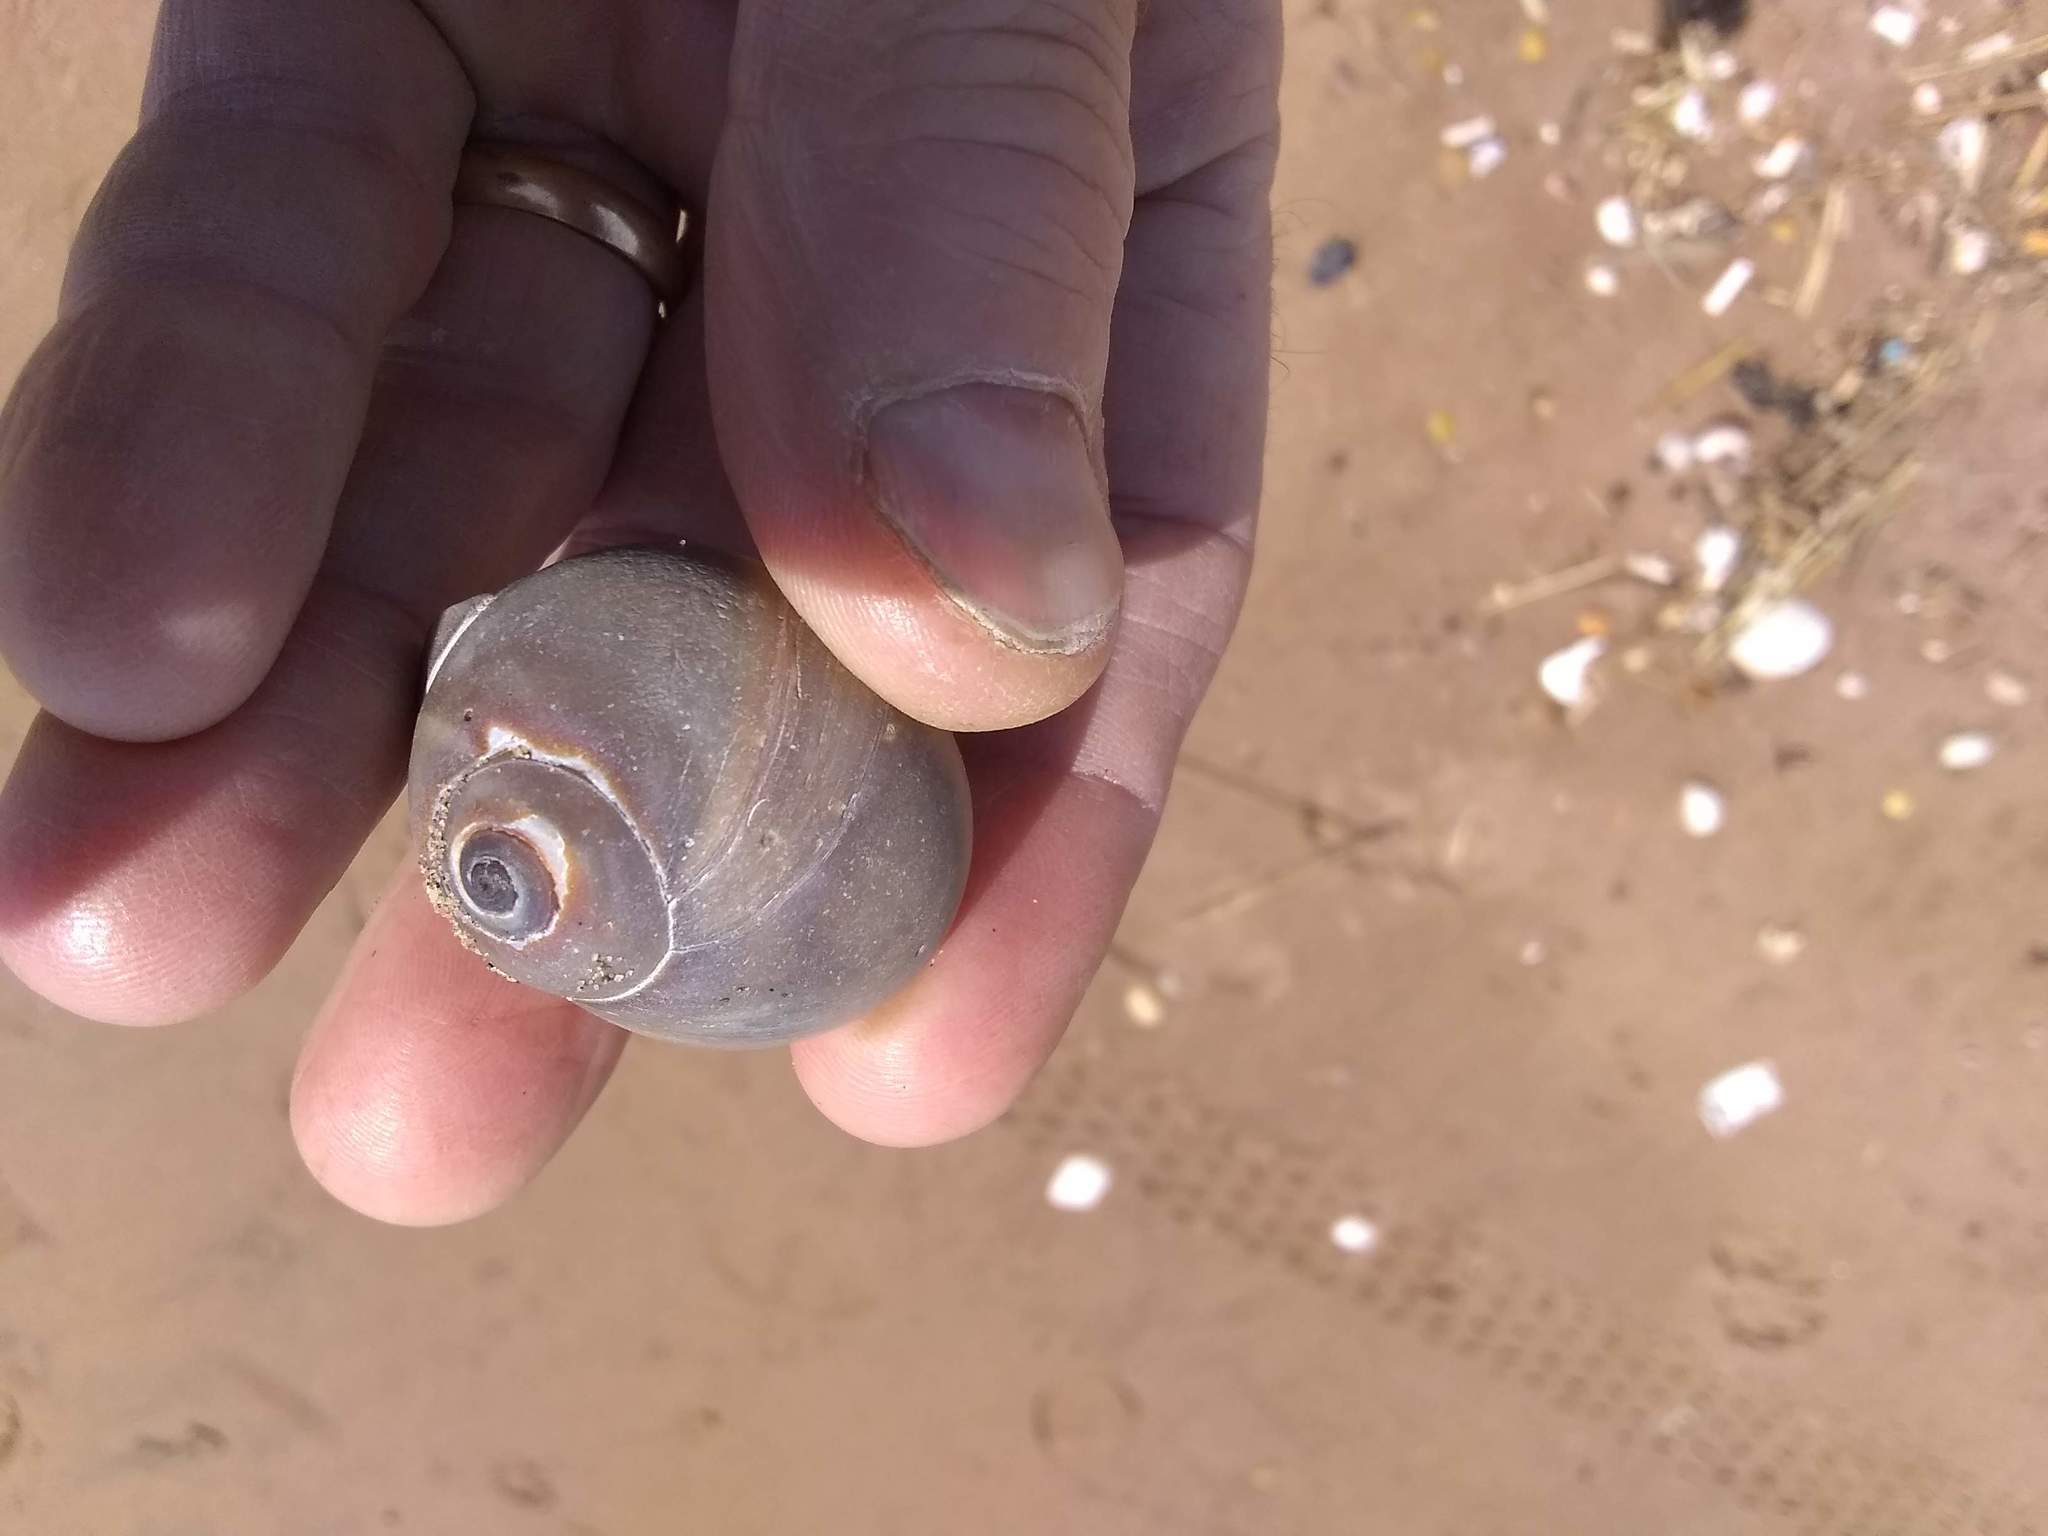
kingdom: Animalia
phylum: Mollusca
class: Gastropoda
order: Littorinimorpha
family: Naticidae
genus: Neverita
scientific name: Neverita duplicata
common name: Lobed moonsnail
